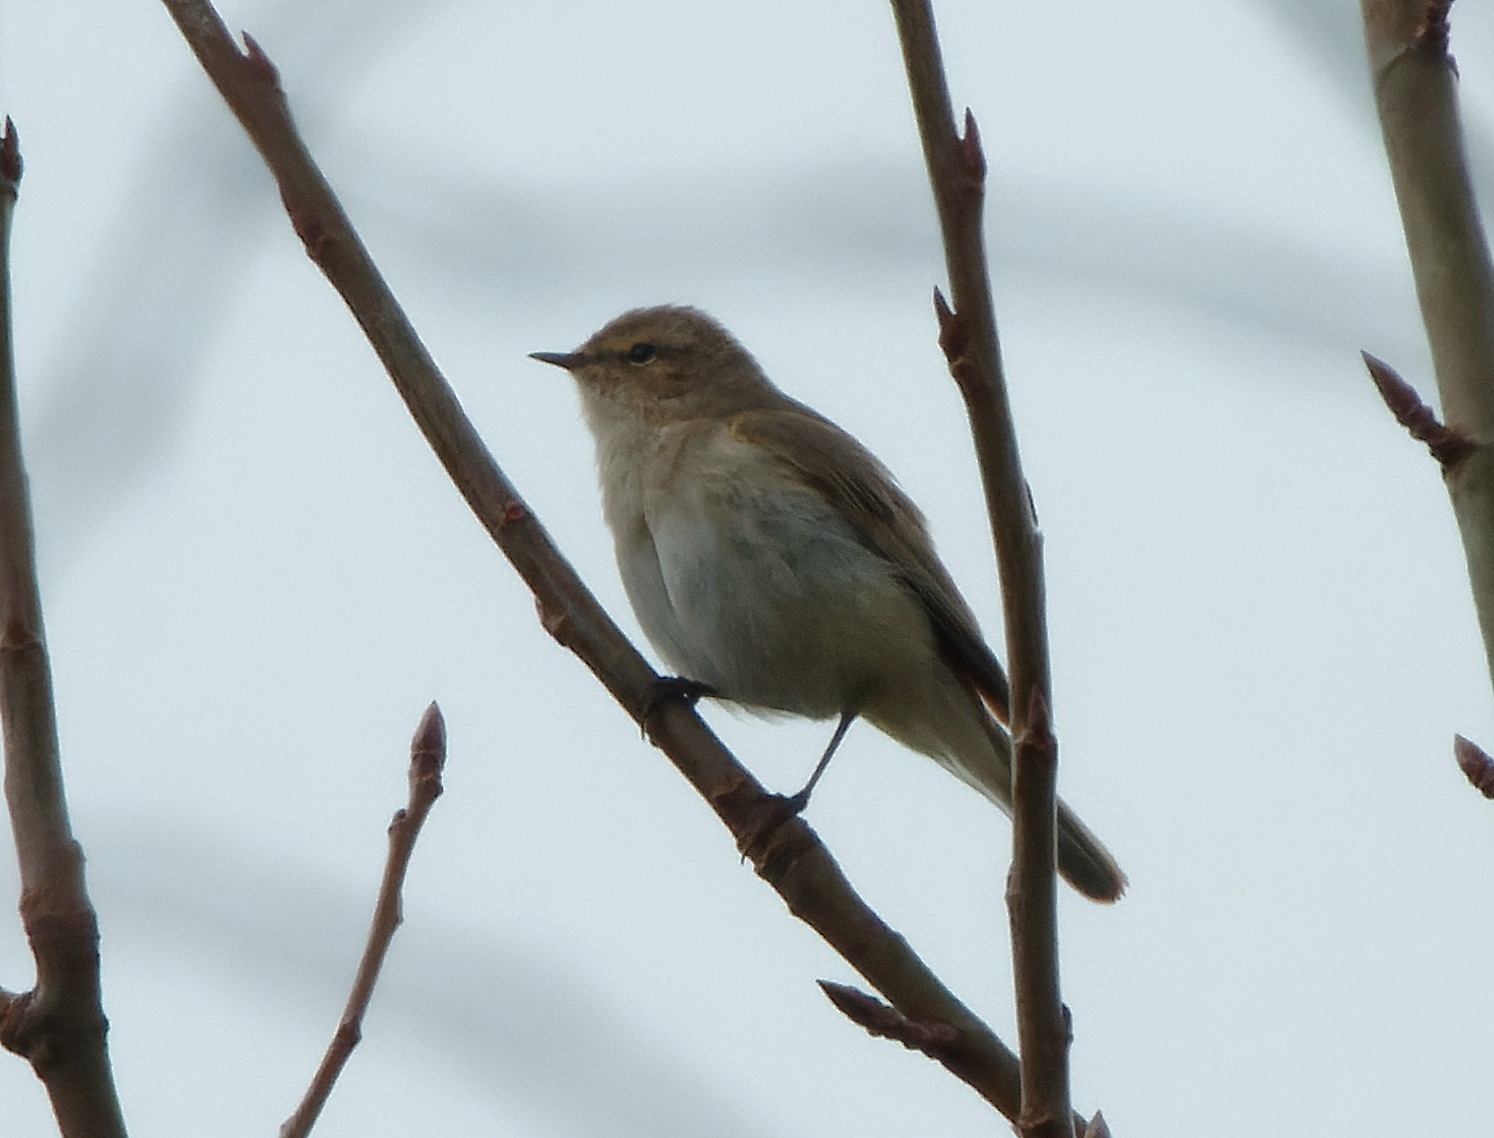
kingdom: Animalia
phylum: Chordata
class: Aves
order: Passeriformes
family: Phylloscopidae
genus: Phylloscopus
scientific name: Phylloscopus collybita
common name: Common chiffchaff
